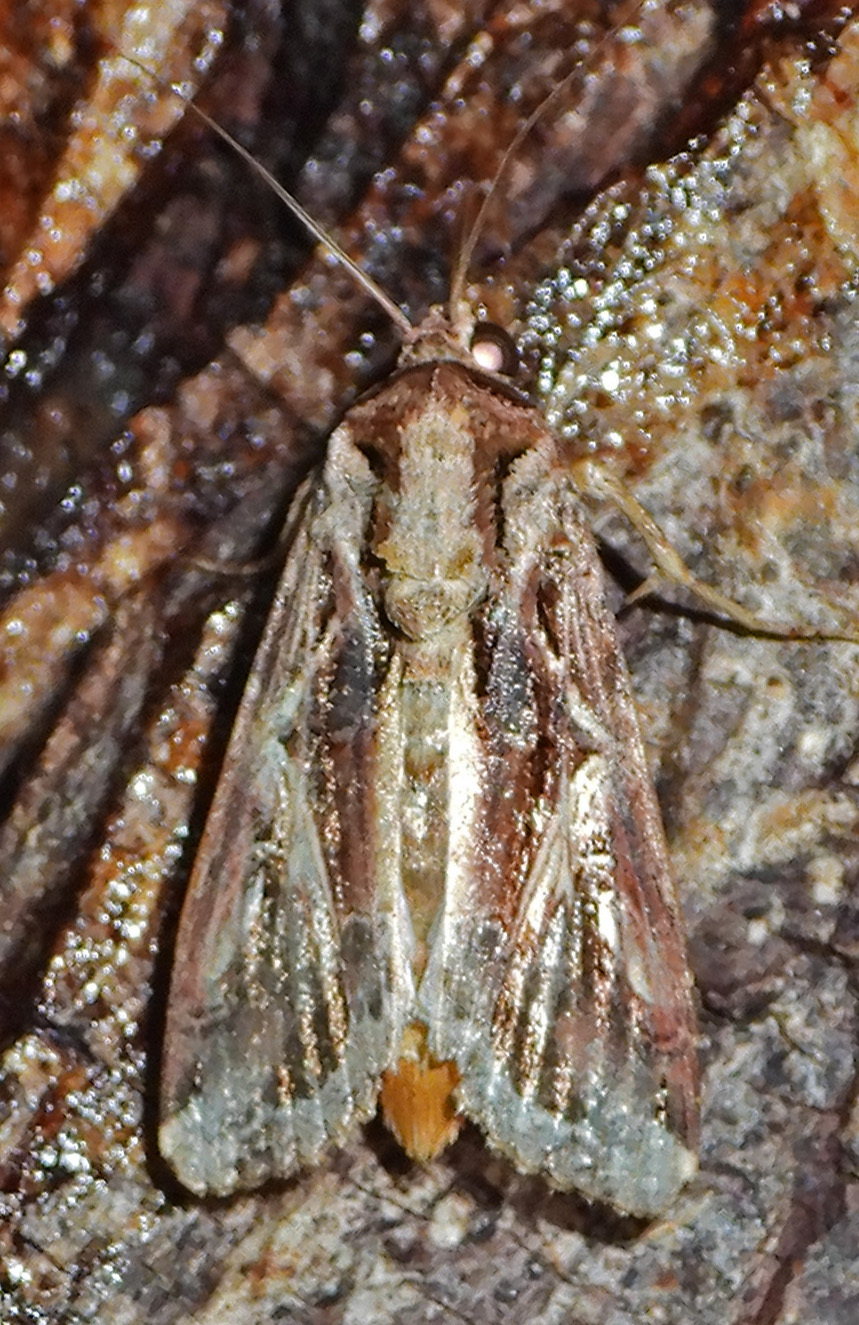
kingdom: Animalia
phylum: Arthropoda
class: Insecta
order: Lepidoptera
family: Noctuidae
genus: Spodoptera
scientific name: Spodoptera dolichos
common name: Sweetpotato armyworm
